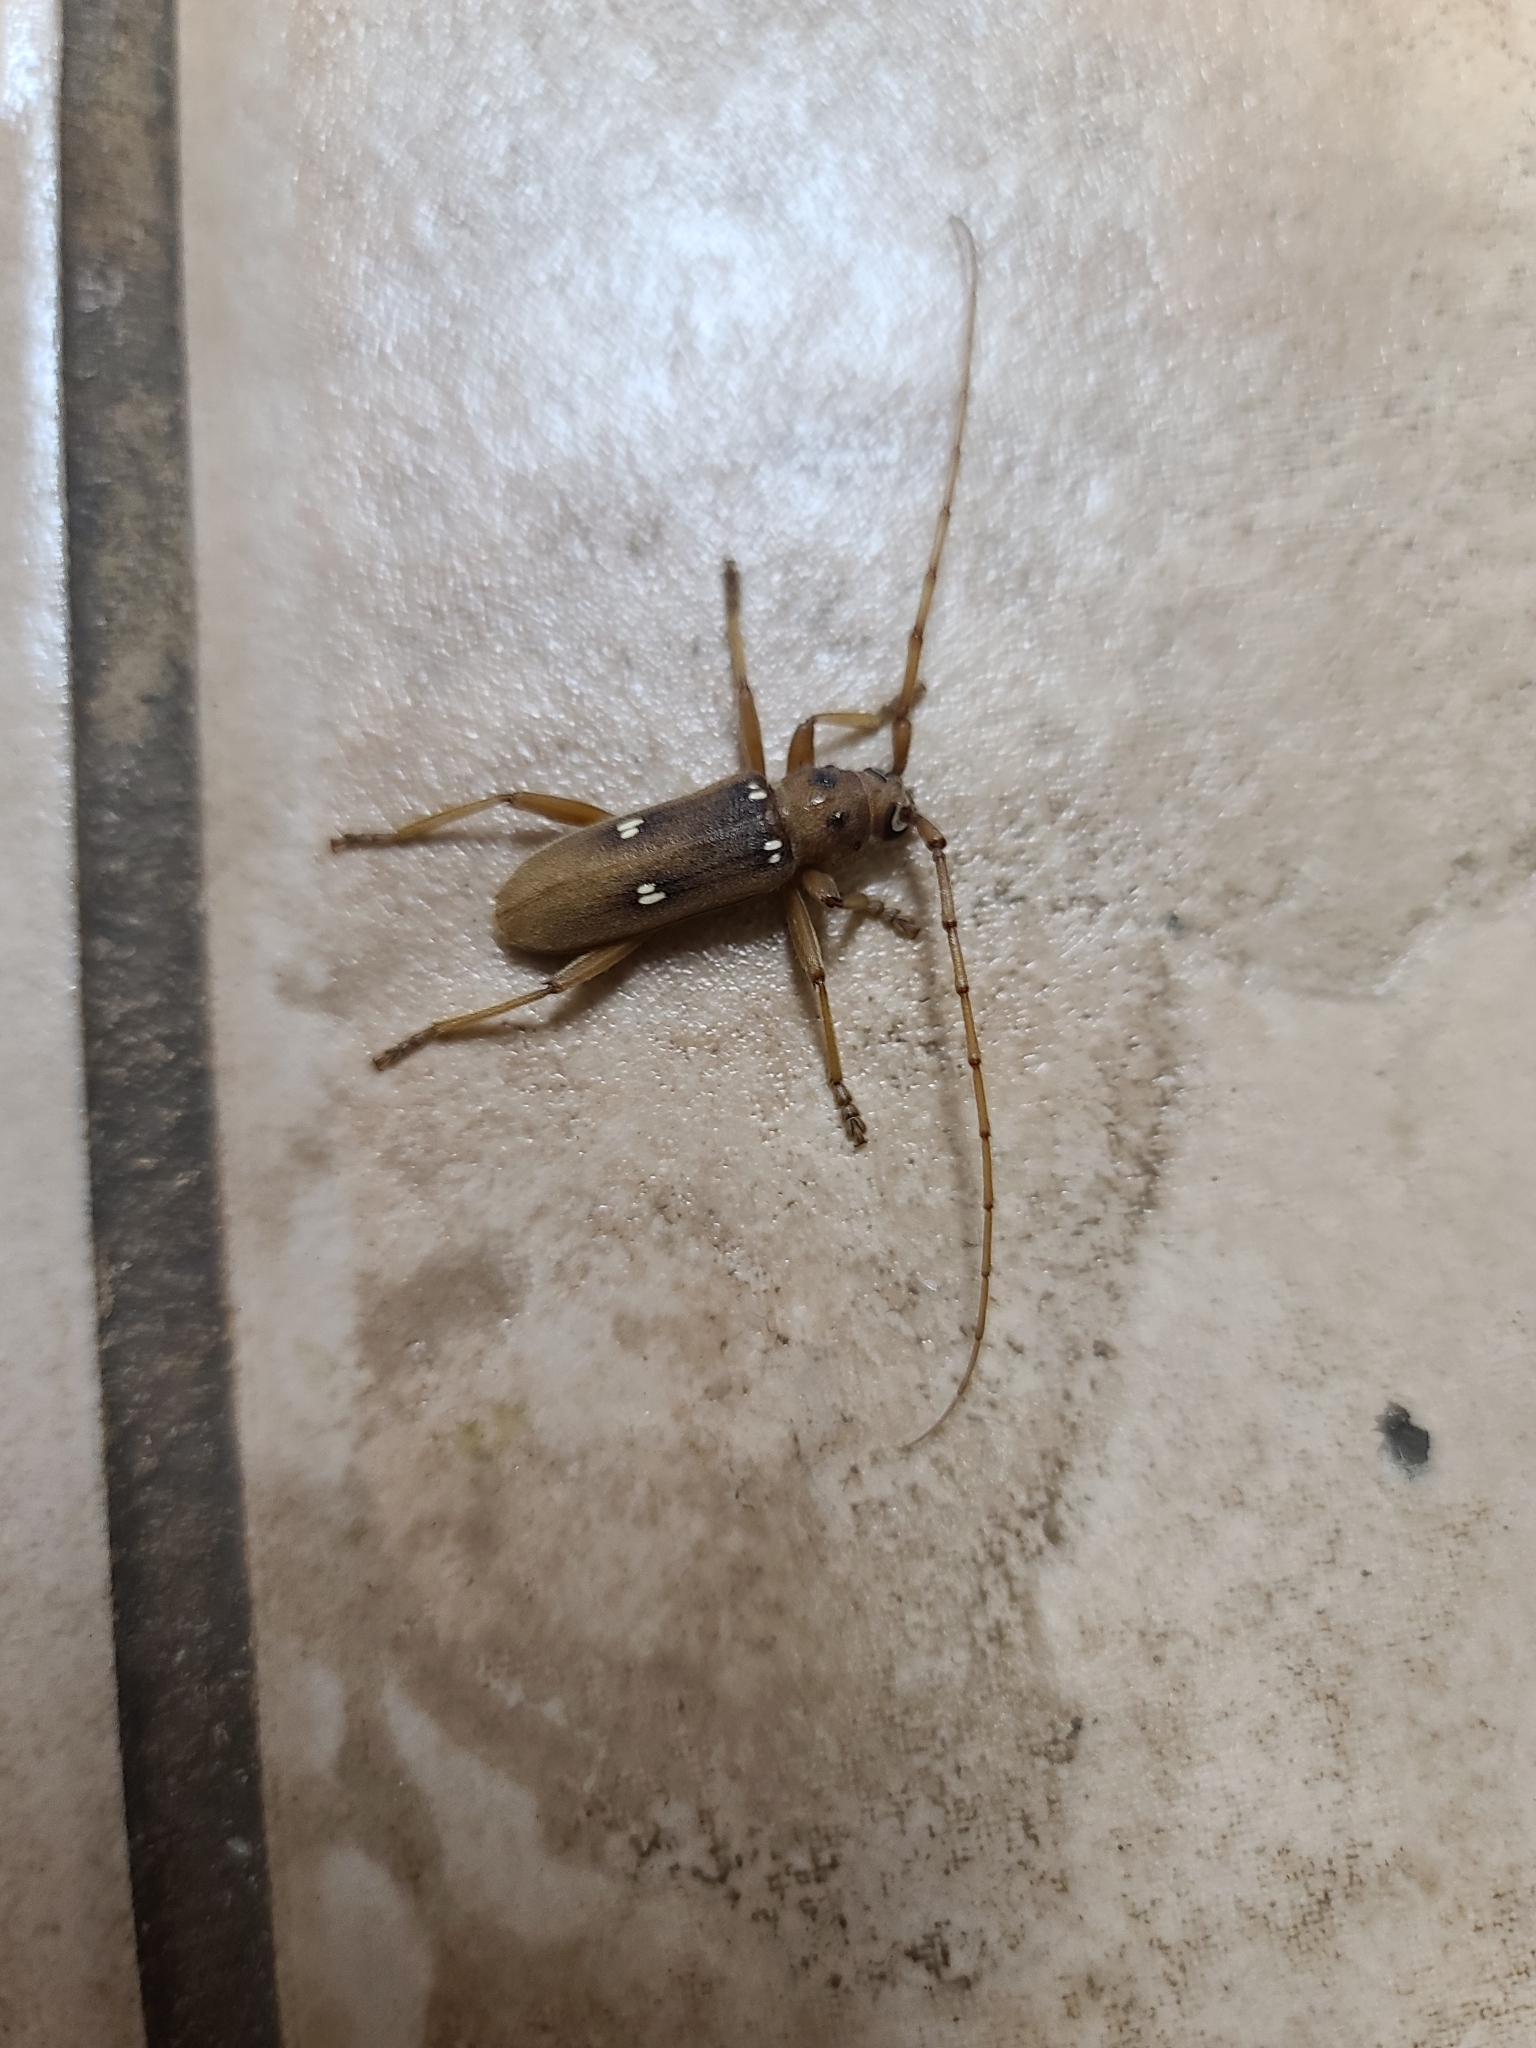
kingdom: Animalia
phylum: Arthropoda
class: Insecta
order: Coleoptera
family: Cerambycidae
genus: Eburia
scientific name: Eburia haldemani
